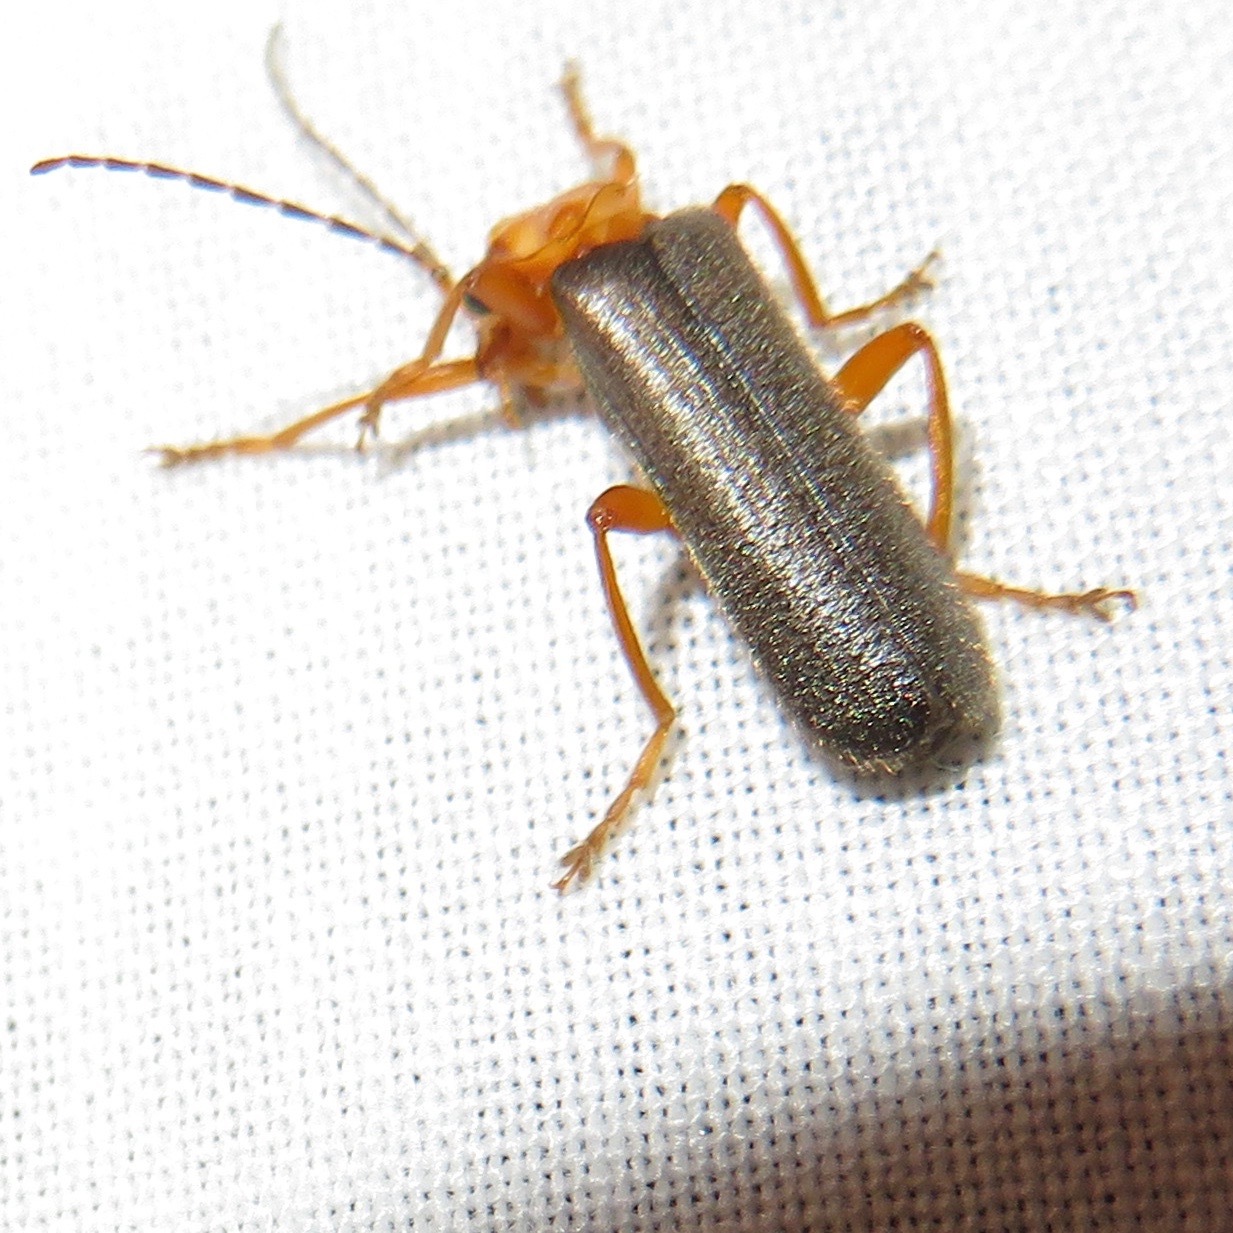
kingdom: Animalia
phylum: Arthropoda
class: Insecta
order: Coleoptera
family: Cantharidae
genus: Cultellunguis
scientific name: Cultellunguis perpallens
